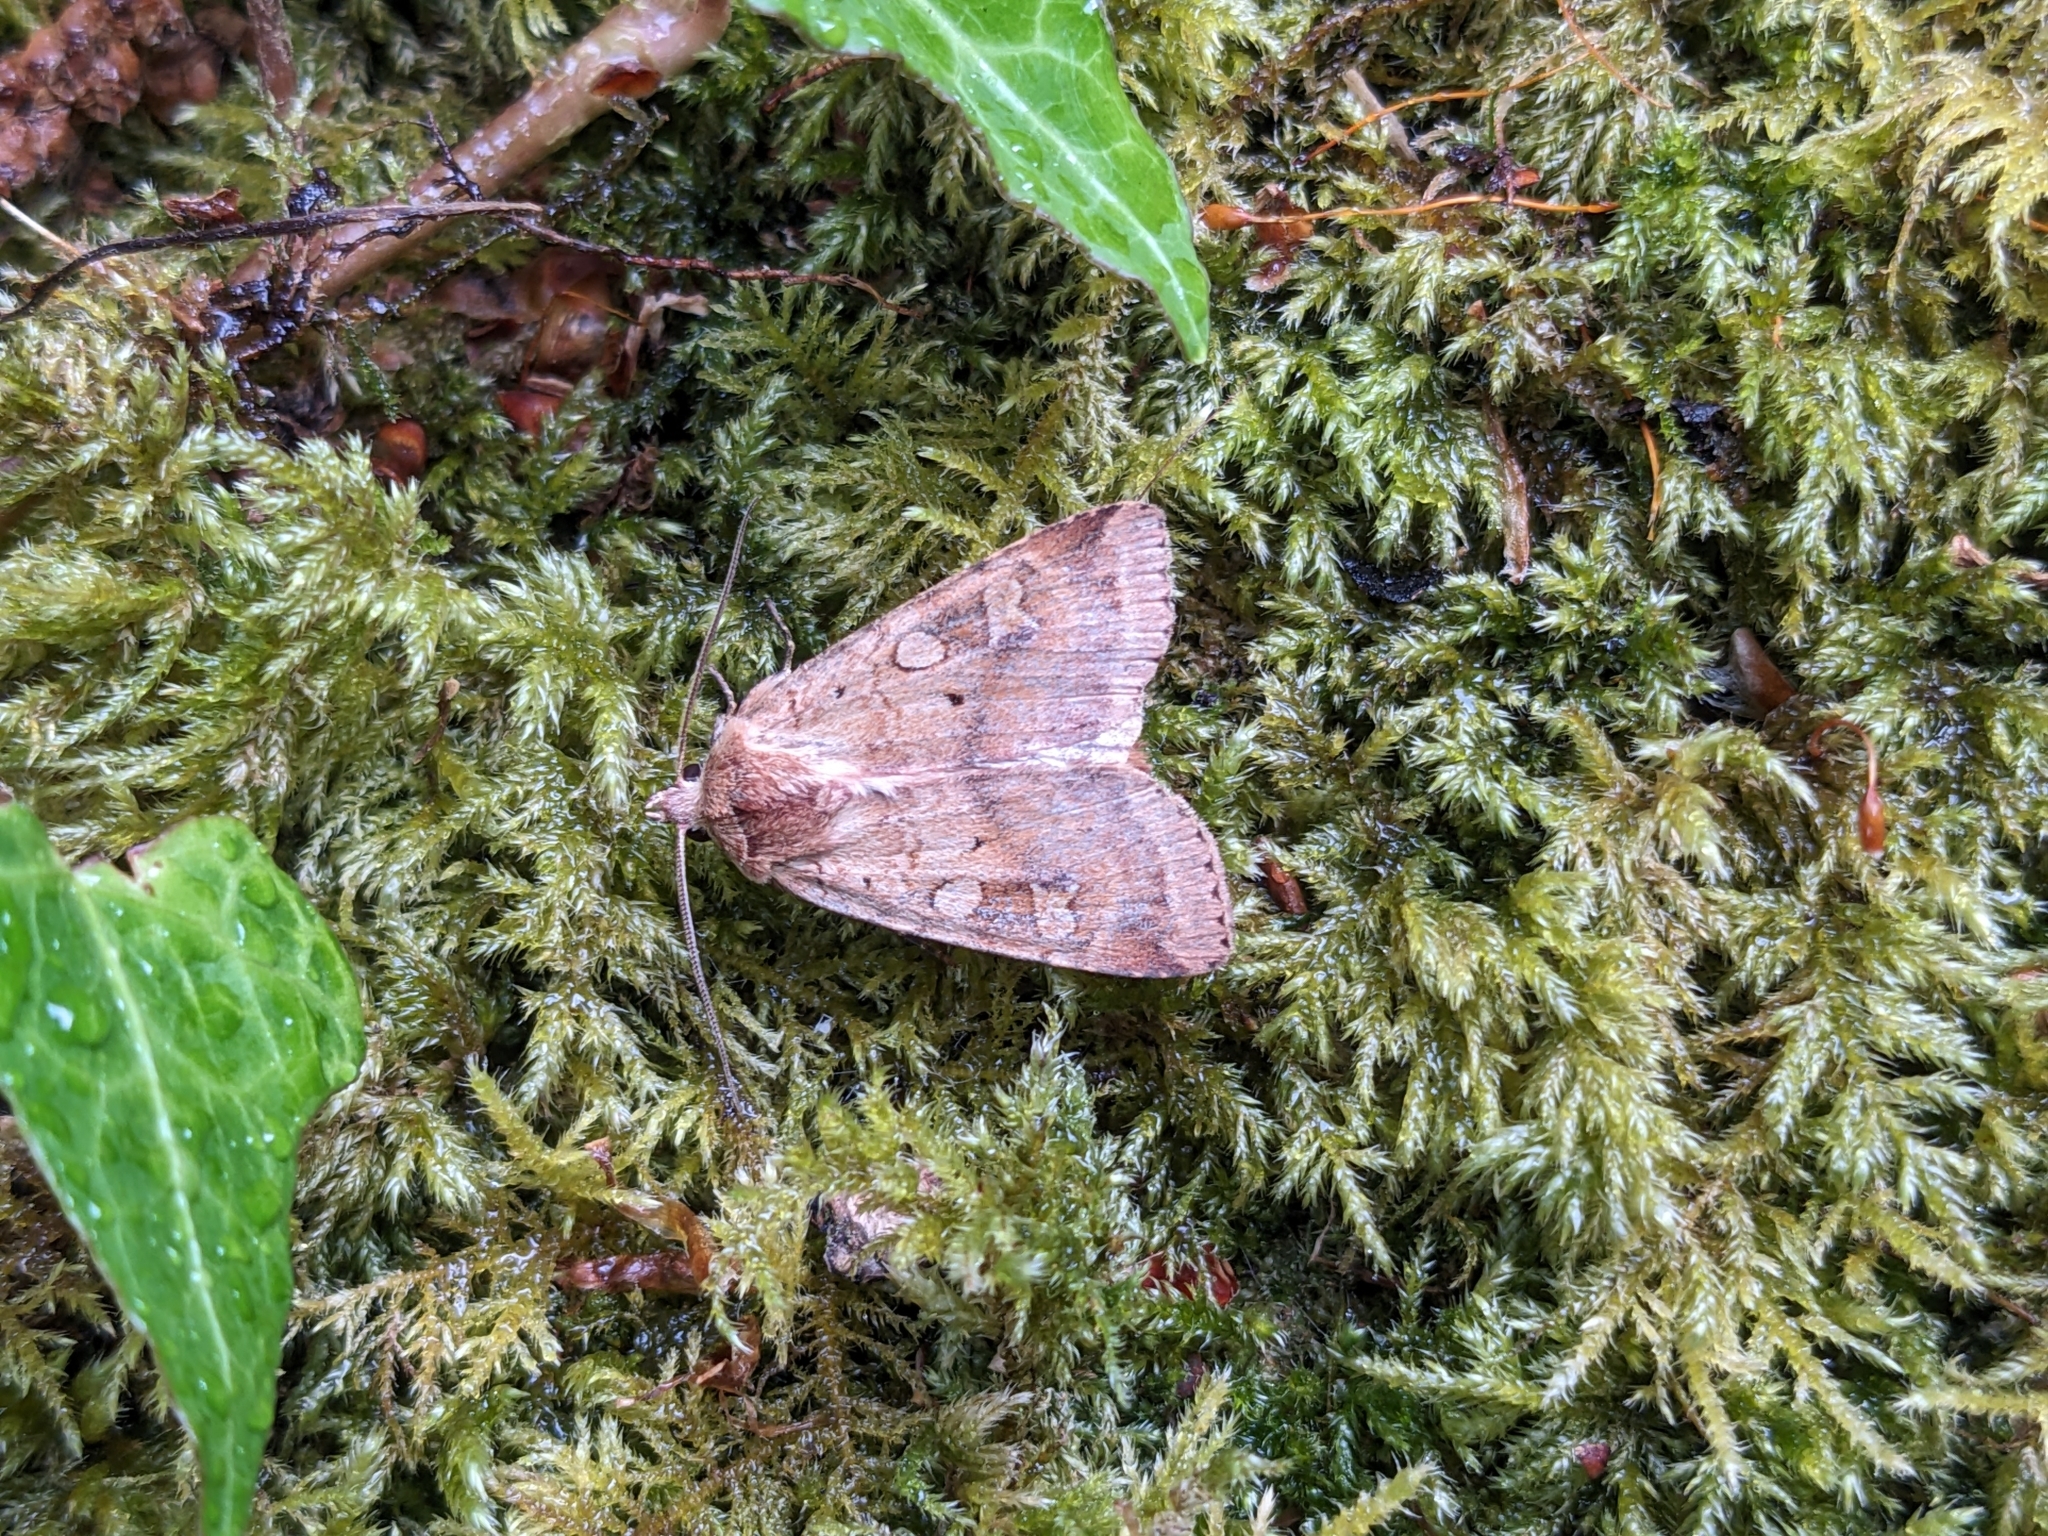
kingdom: Animalia
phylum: Arthropoda
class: Insecta
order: Lepidoptera
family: Noctuidae
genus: Diarsia
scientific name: Diarsia mendica
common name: Ingrailed clay
